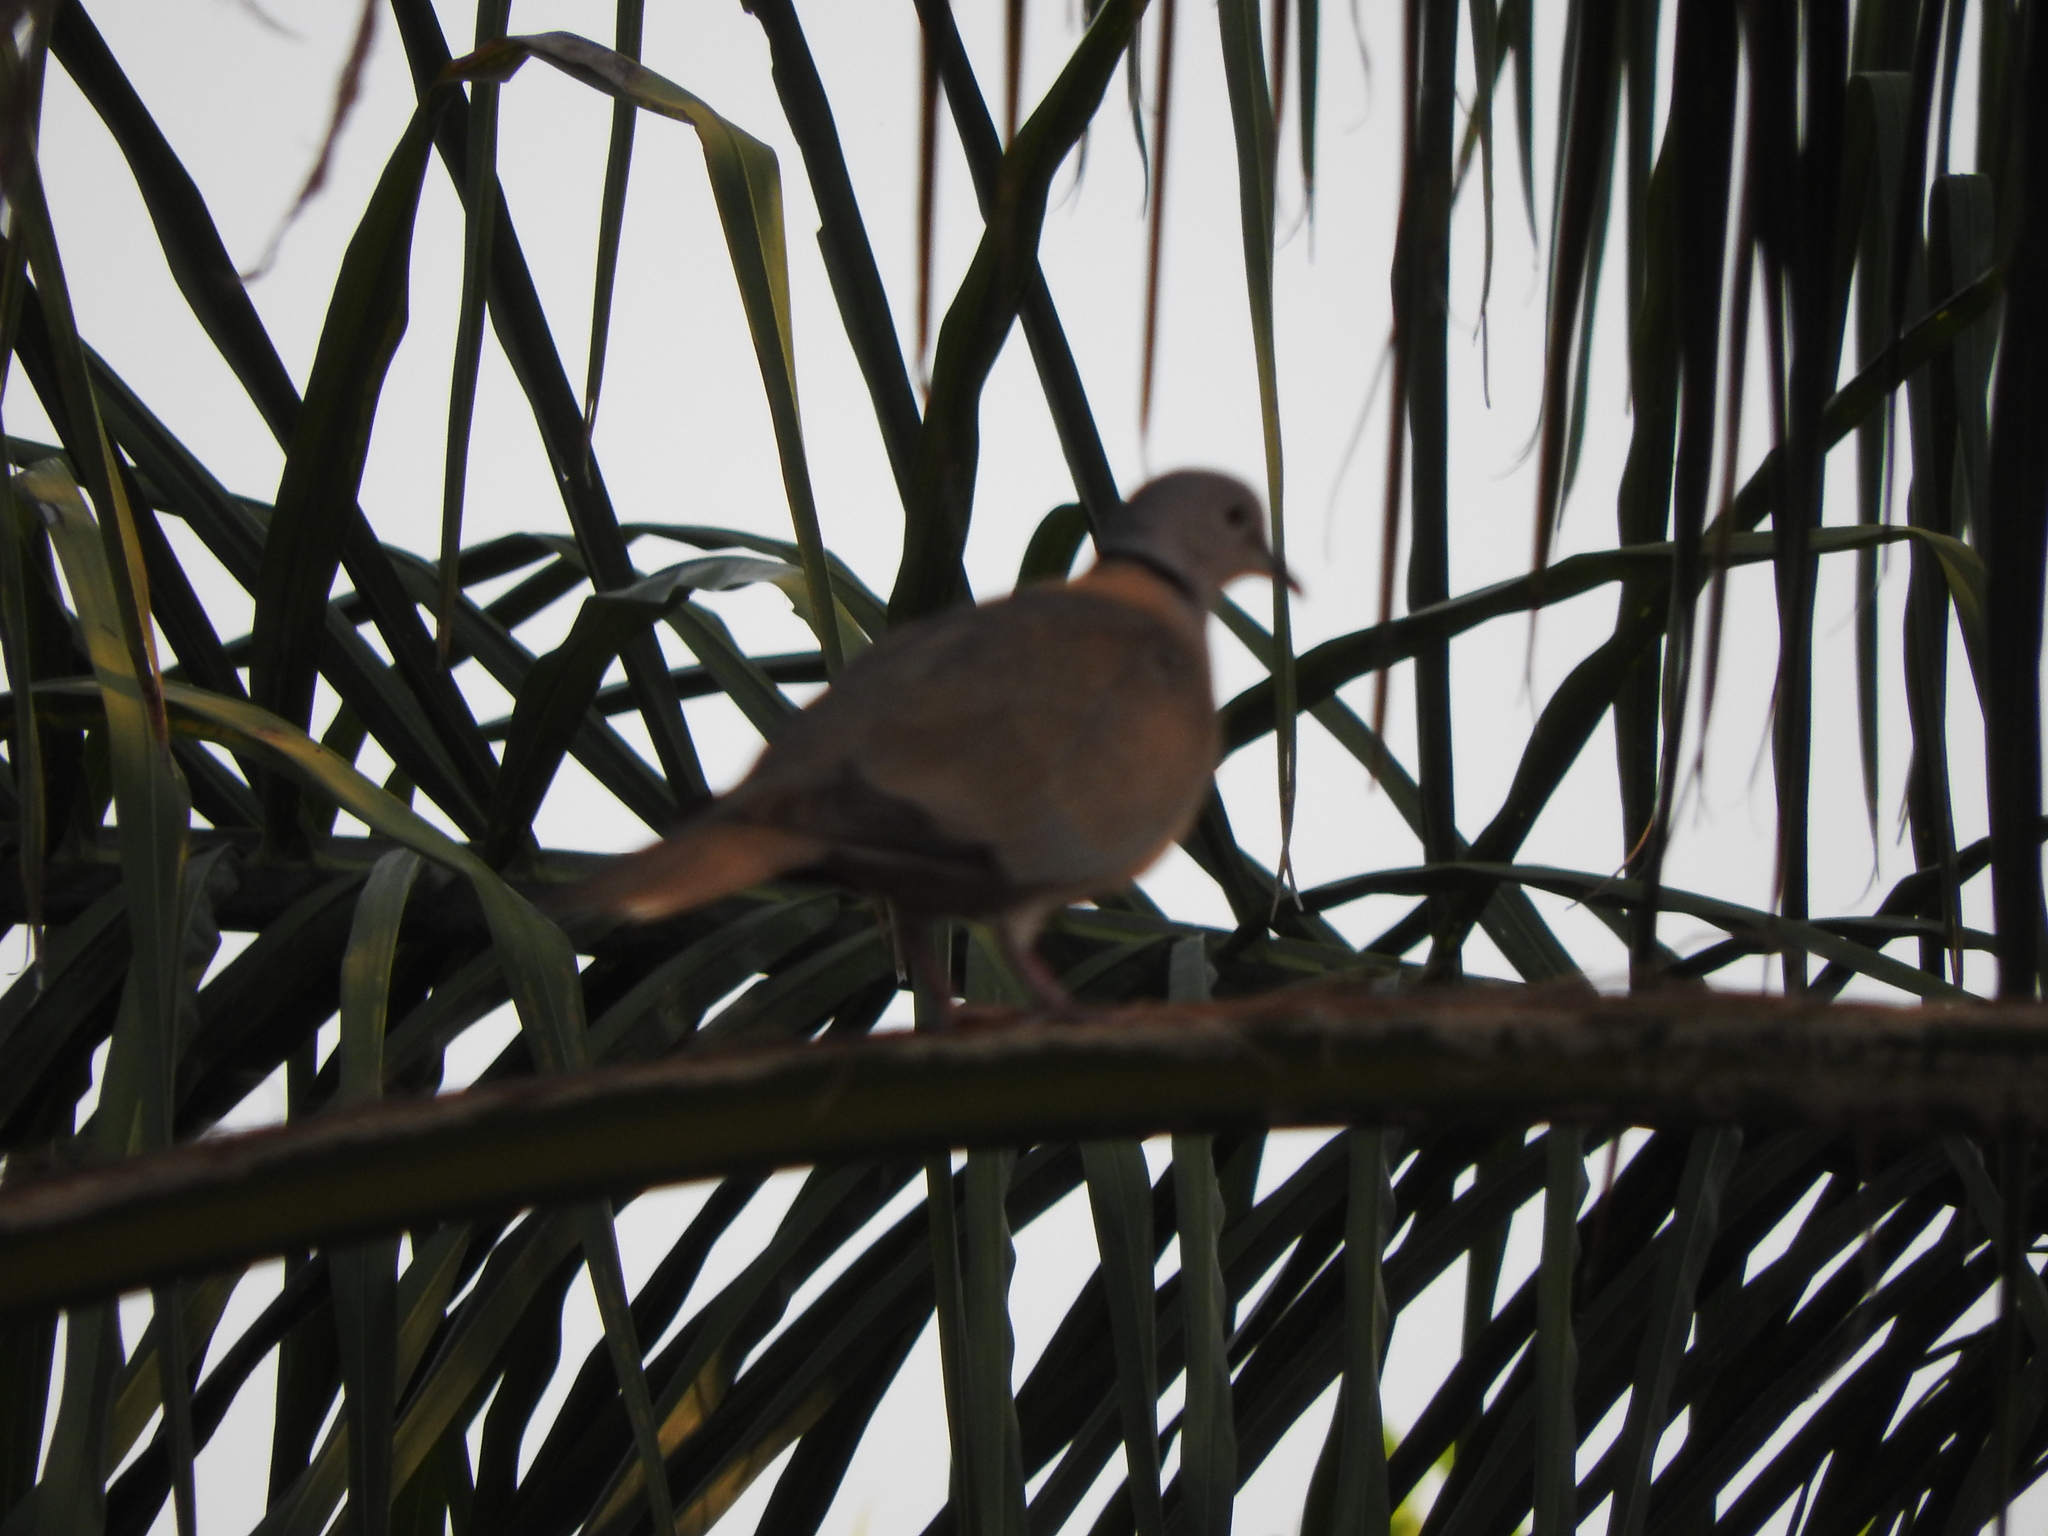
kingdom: Animalia
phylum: Chordata
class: Aves
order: Columbiformes
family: Columbidae
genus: Streptopelia
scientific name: Streptopelia decaocto
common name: Eurasian collared dove
